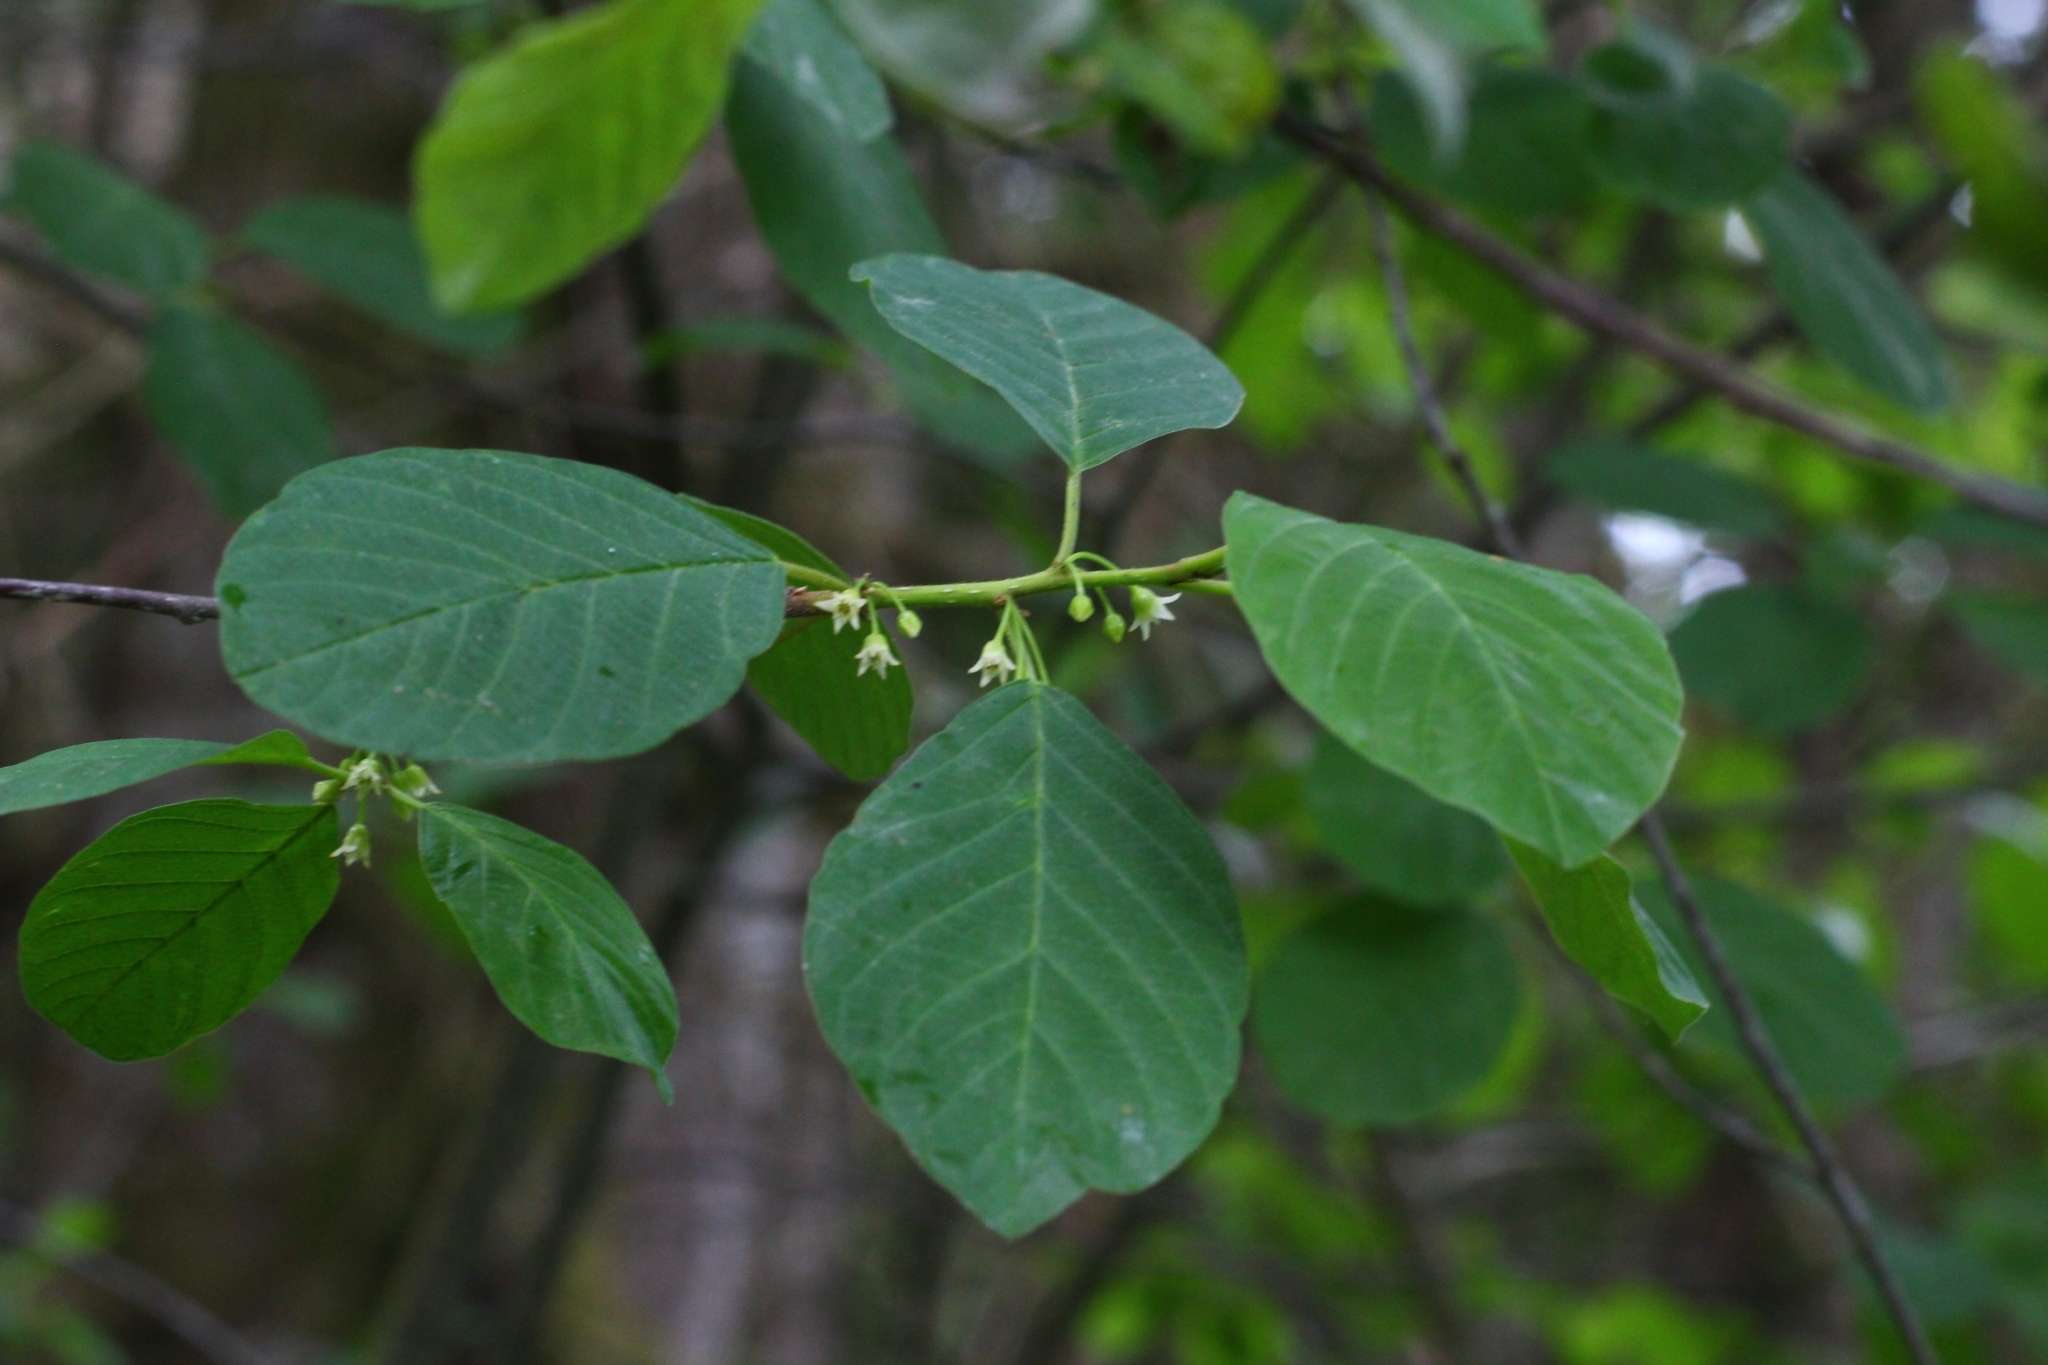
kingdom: Plantae
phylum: Tracheophyta
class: Magnoliopsida
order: Rosales
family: Rhamnaceae
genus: Frangula
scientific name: Frangula alnus
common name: Alder buckthorn
